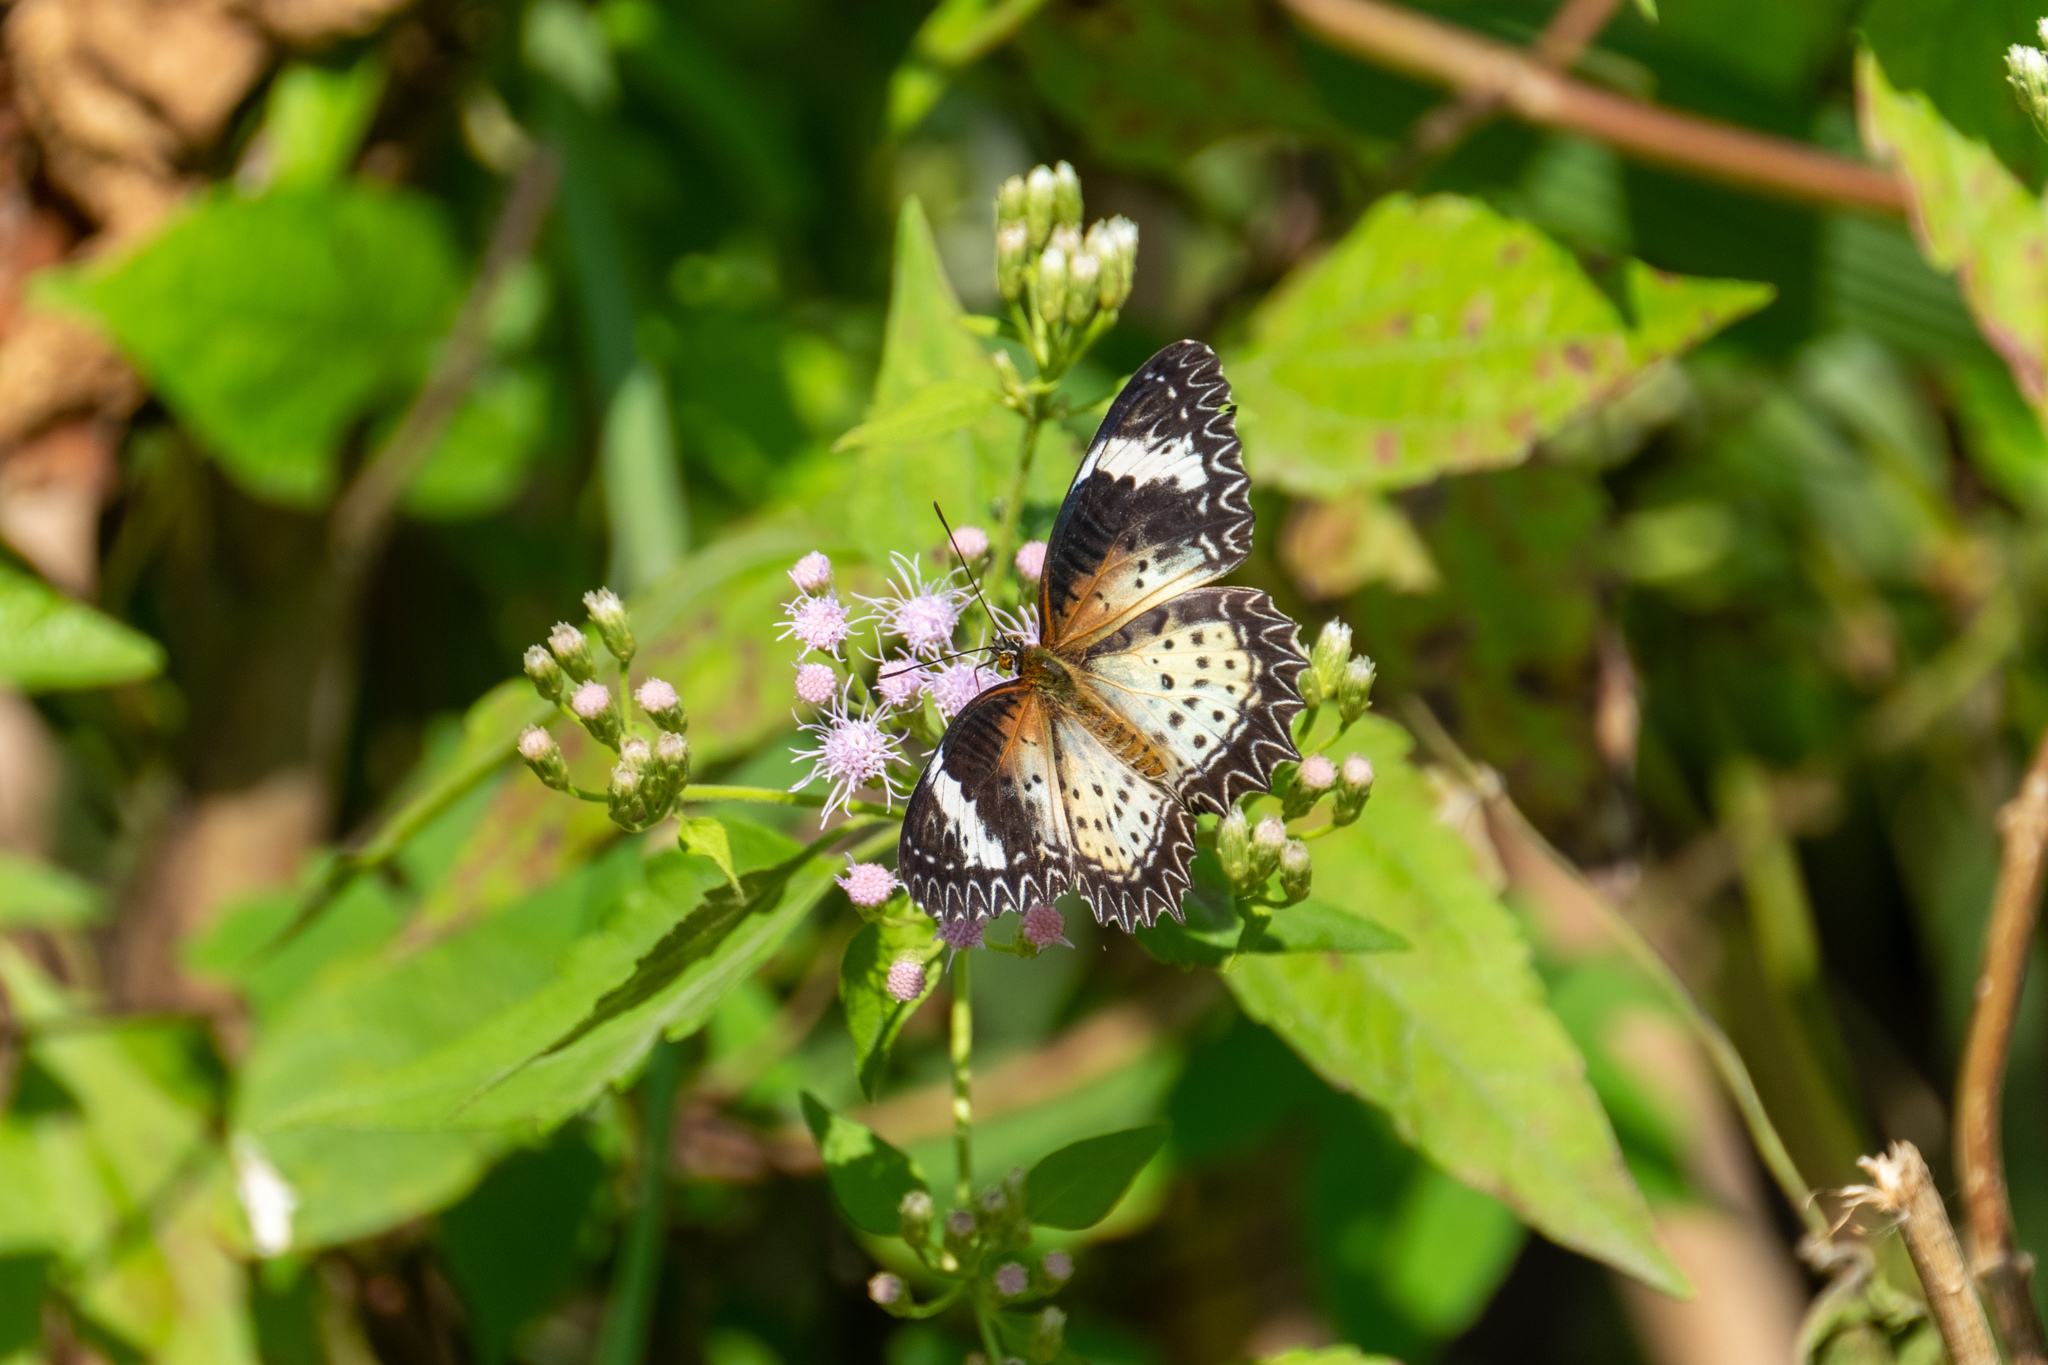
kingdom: Animalia
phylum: Arthropoda
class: Insecta
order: Lepidoptera
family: Nymphalidae
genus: Cethosia
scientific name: Cethosia cyane
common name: Leopard lacewing butterfly
